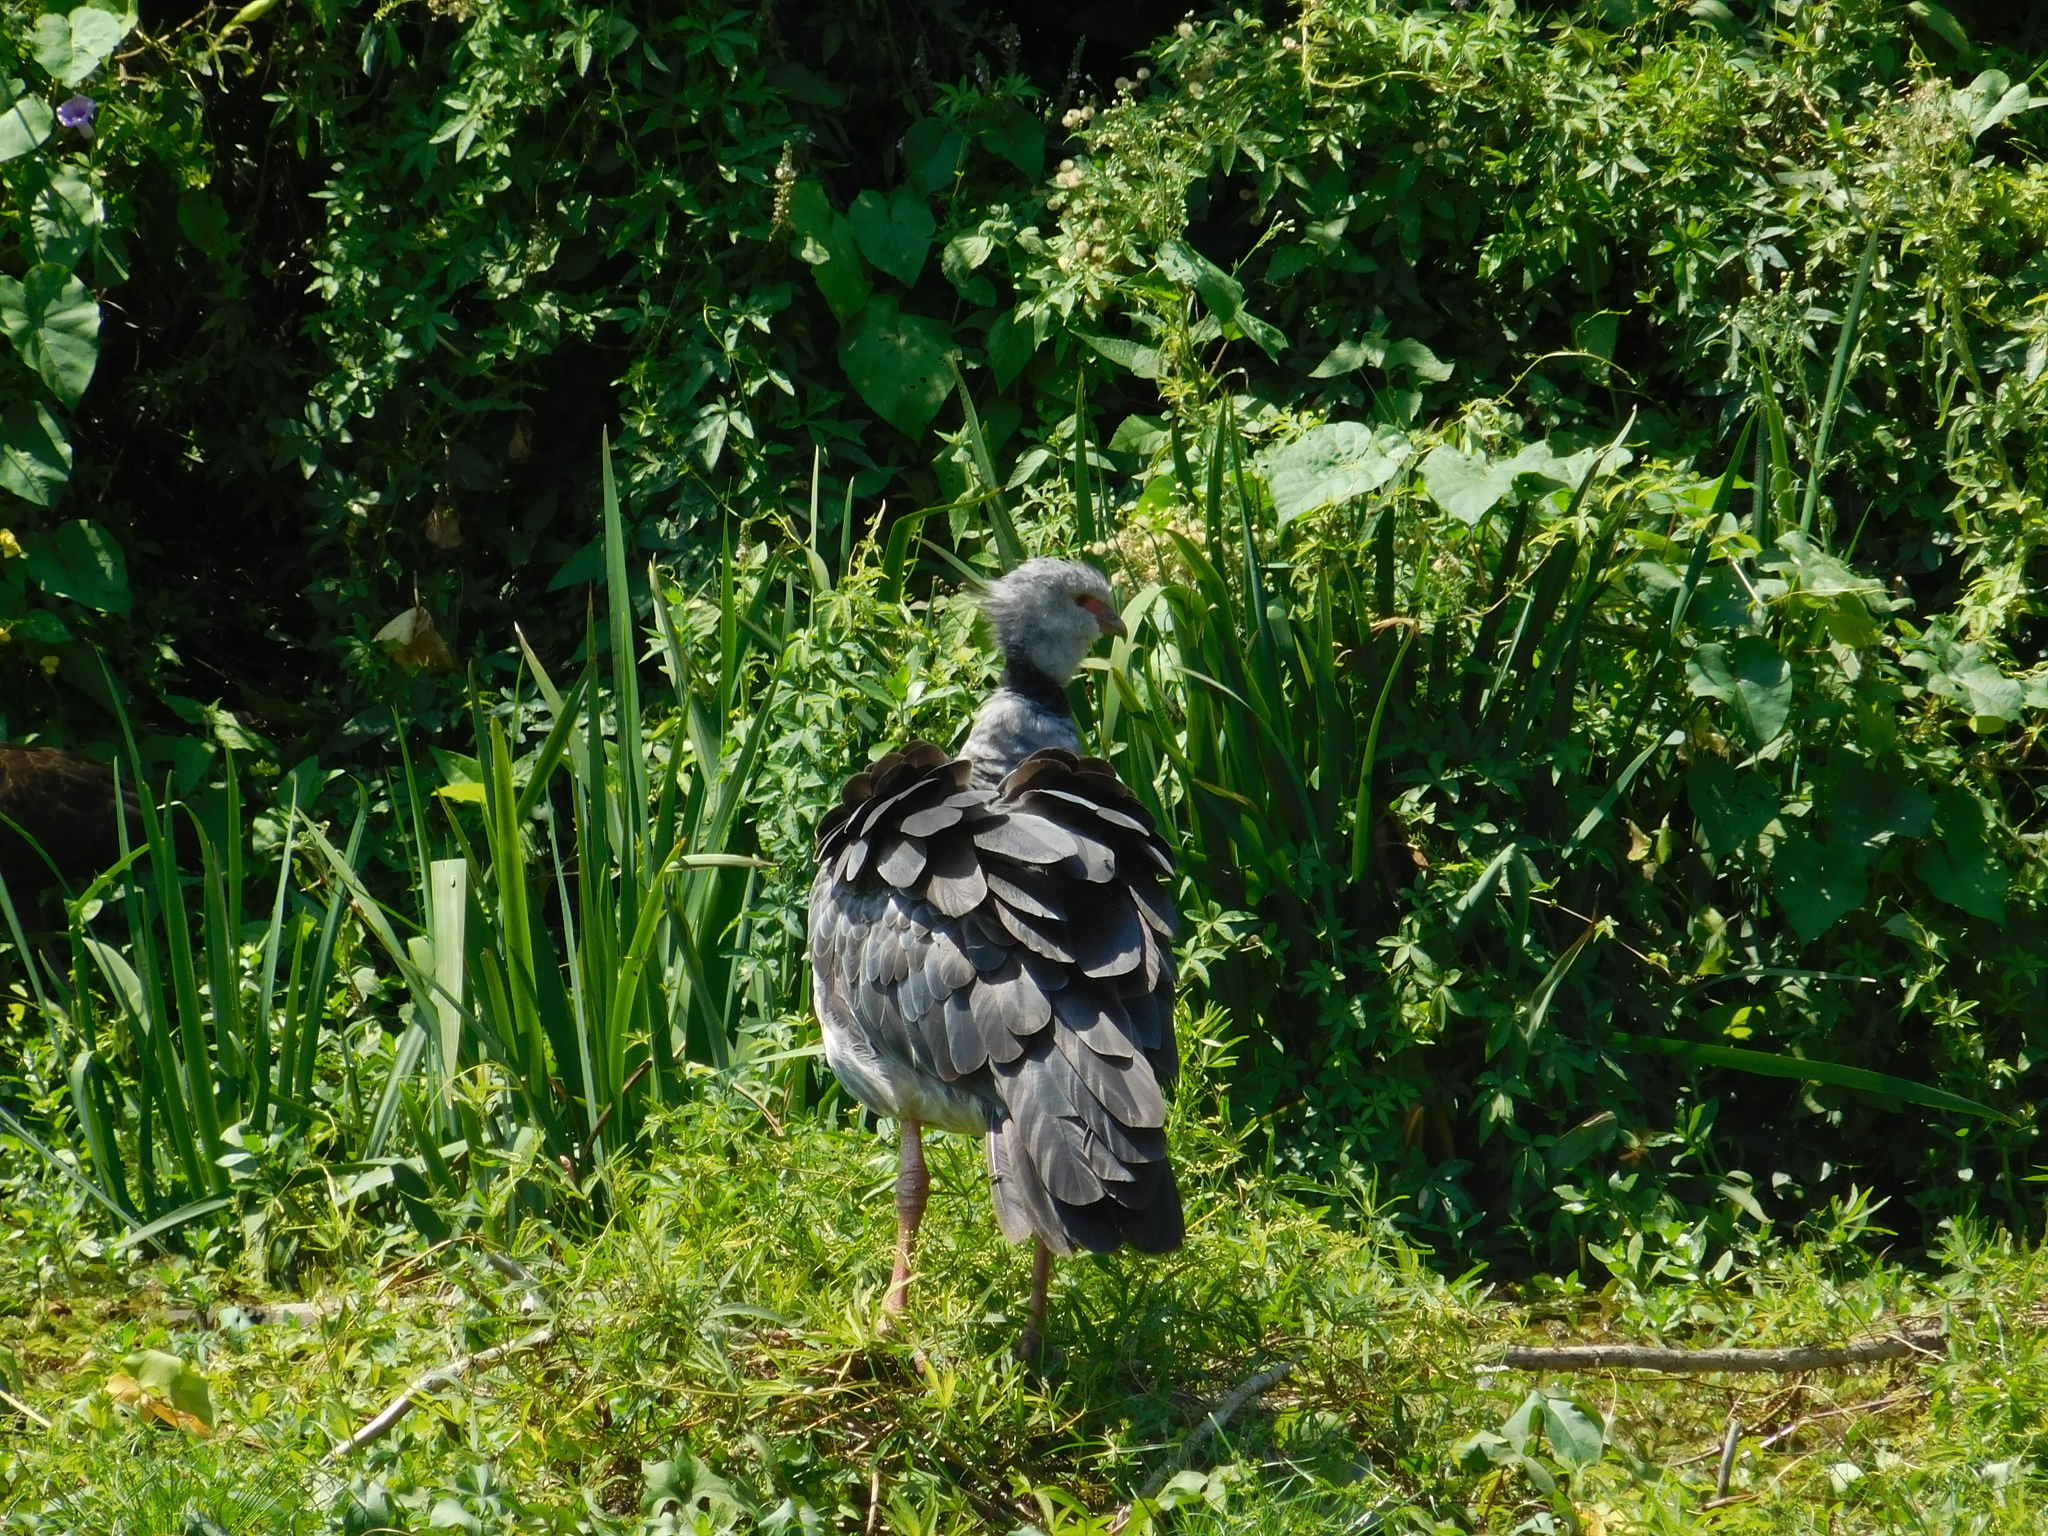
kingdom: Animalia
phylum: Chordata
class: Aves
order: Anseriformes
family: Anhimidae
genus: Chauna
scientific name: Chauna torquata
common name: Southern screamer
